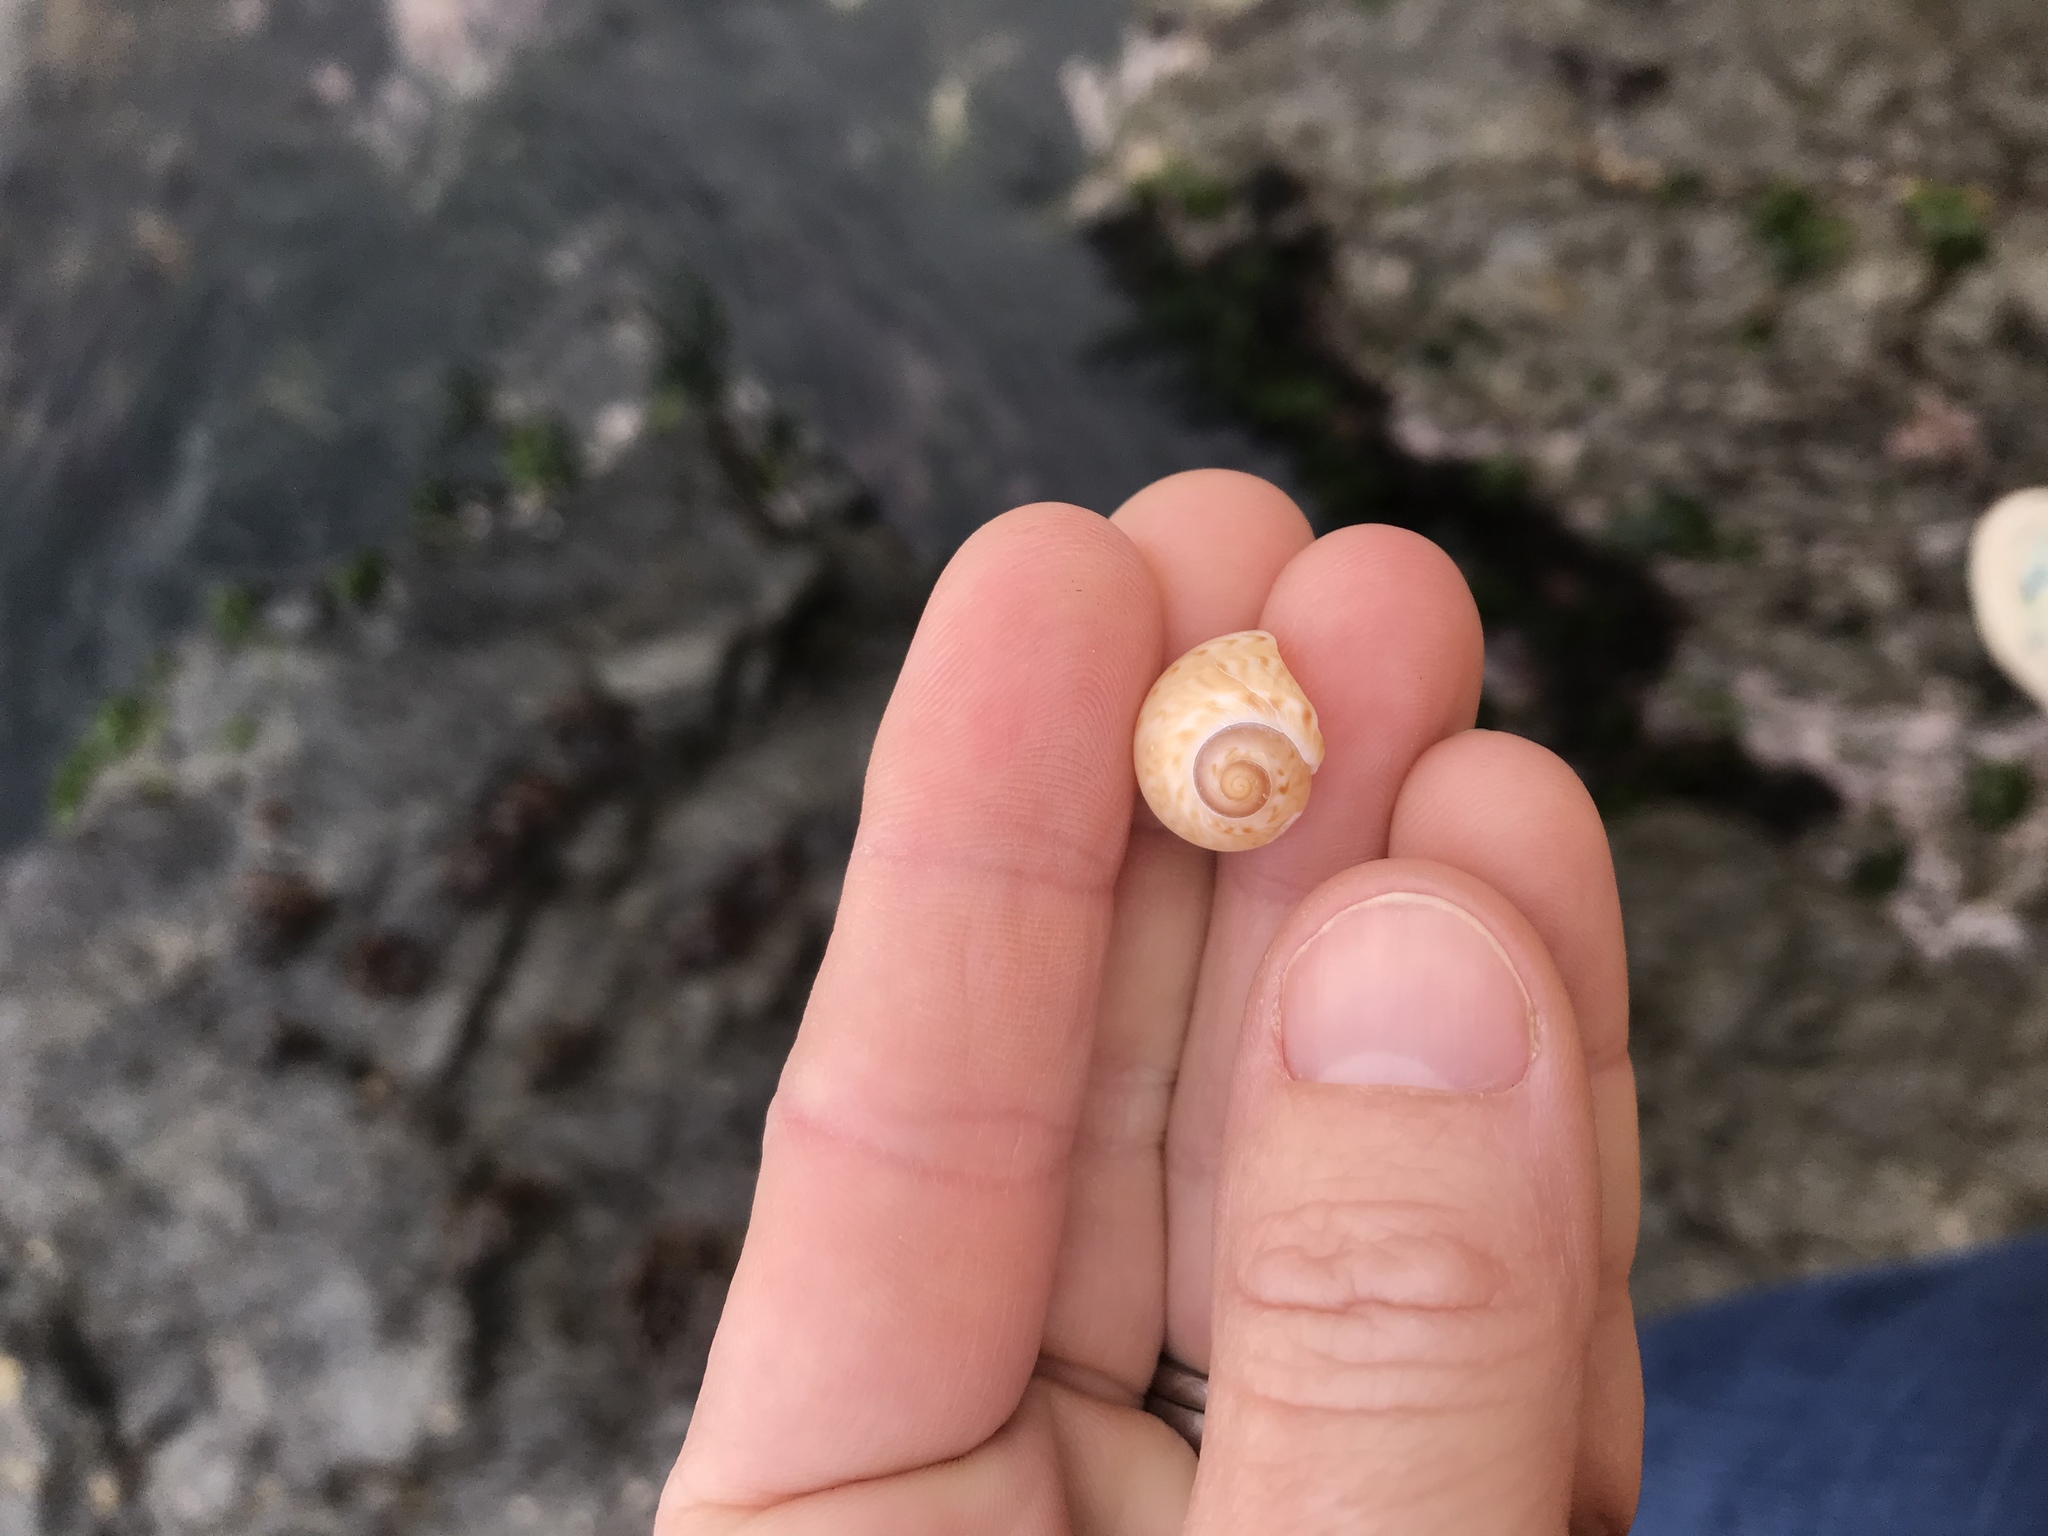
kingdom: Animalia
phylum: Mollusca
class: Gastropoda
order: Littorinimorpha
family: Naticidae
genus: Tanea
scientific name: Tanea zelandica
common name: New zealand moonsnail
